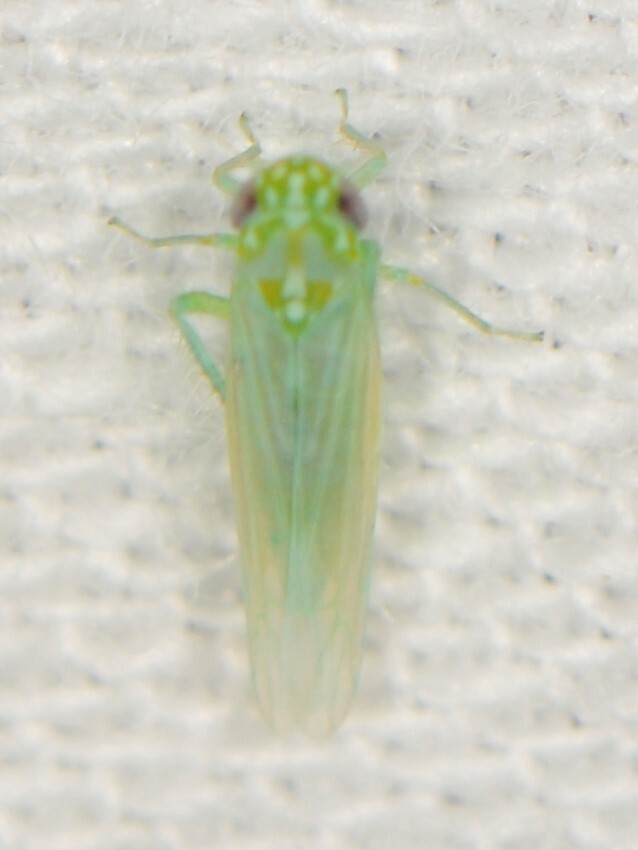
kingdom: Animalia
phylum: Arthropoda
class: Insecta
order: Hemiptera
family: Cicadellidae
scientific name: Cicadellidae
